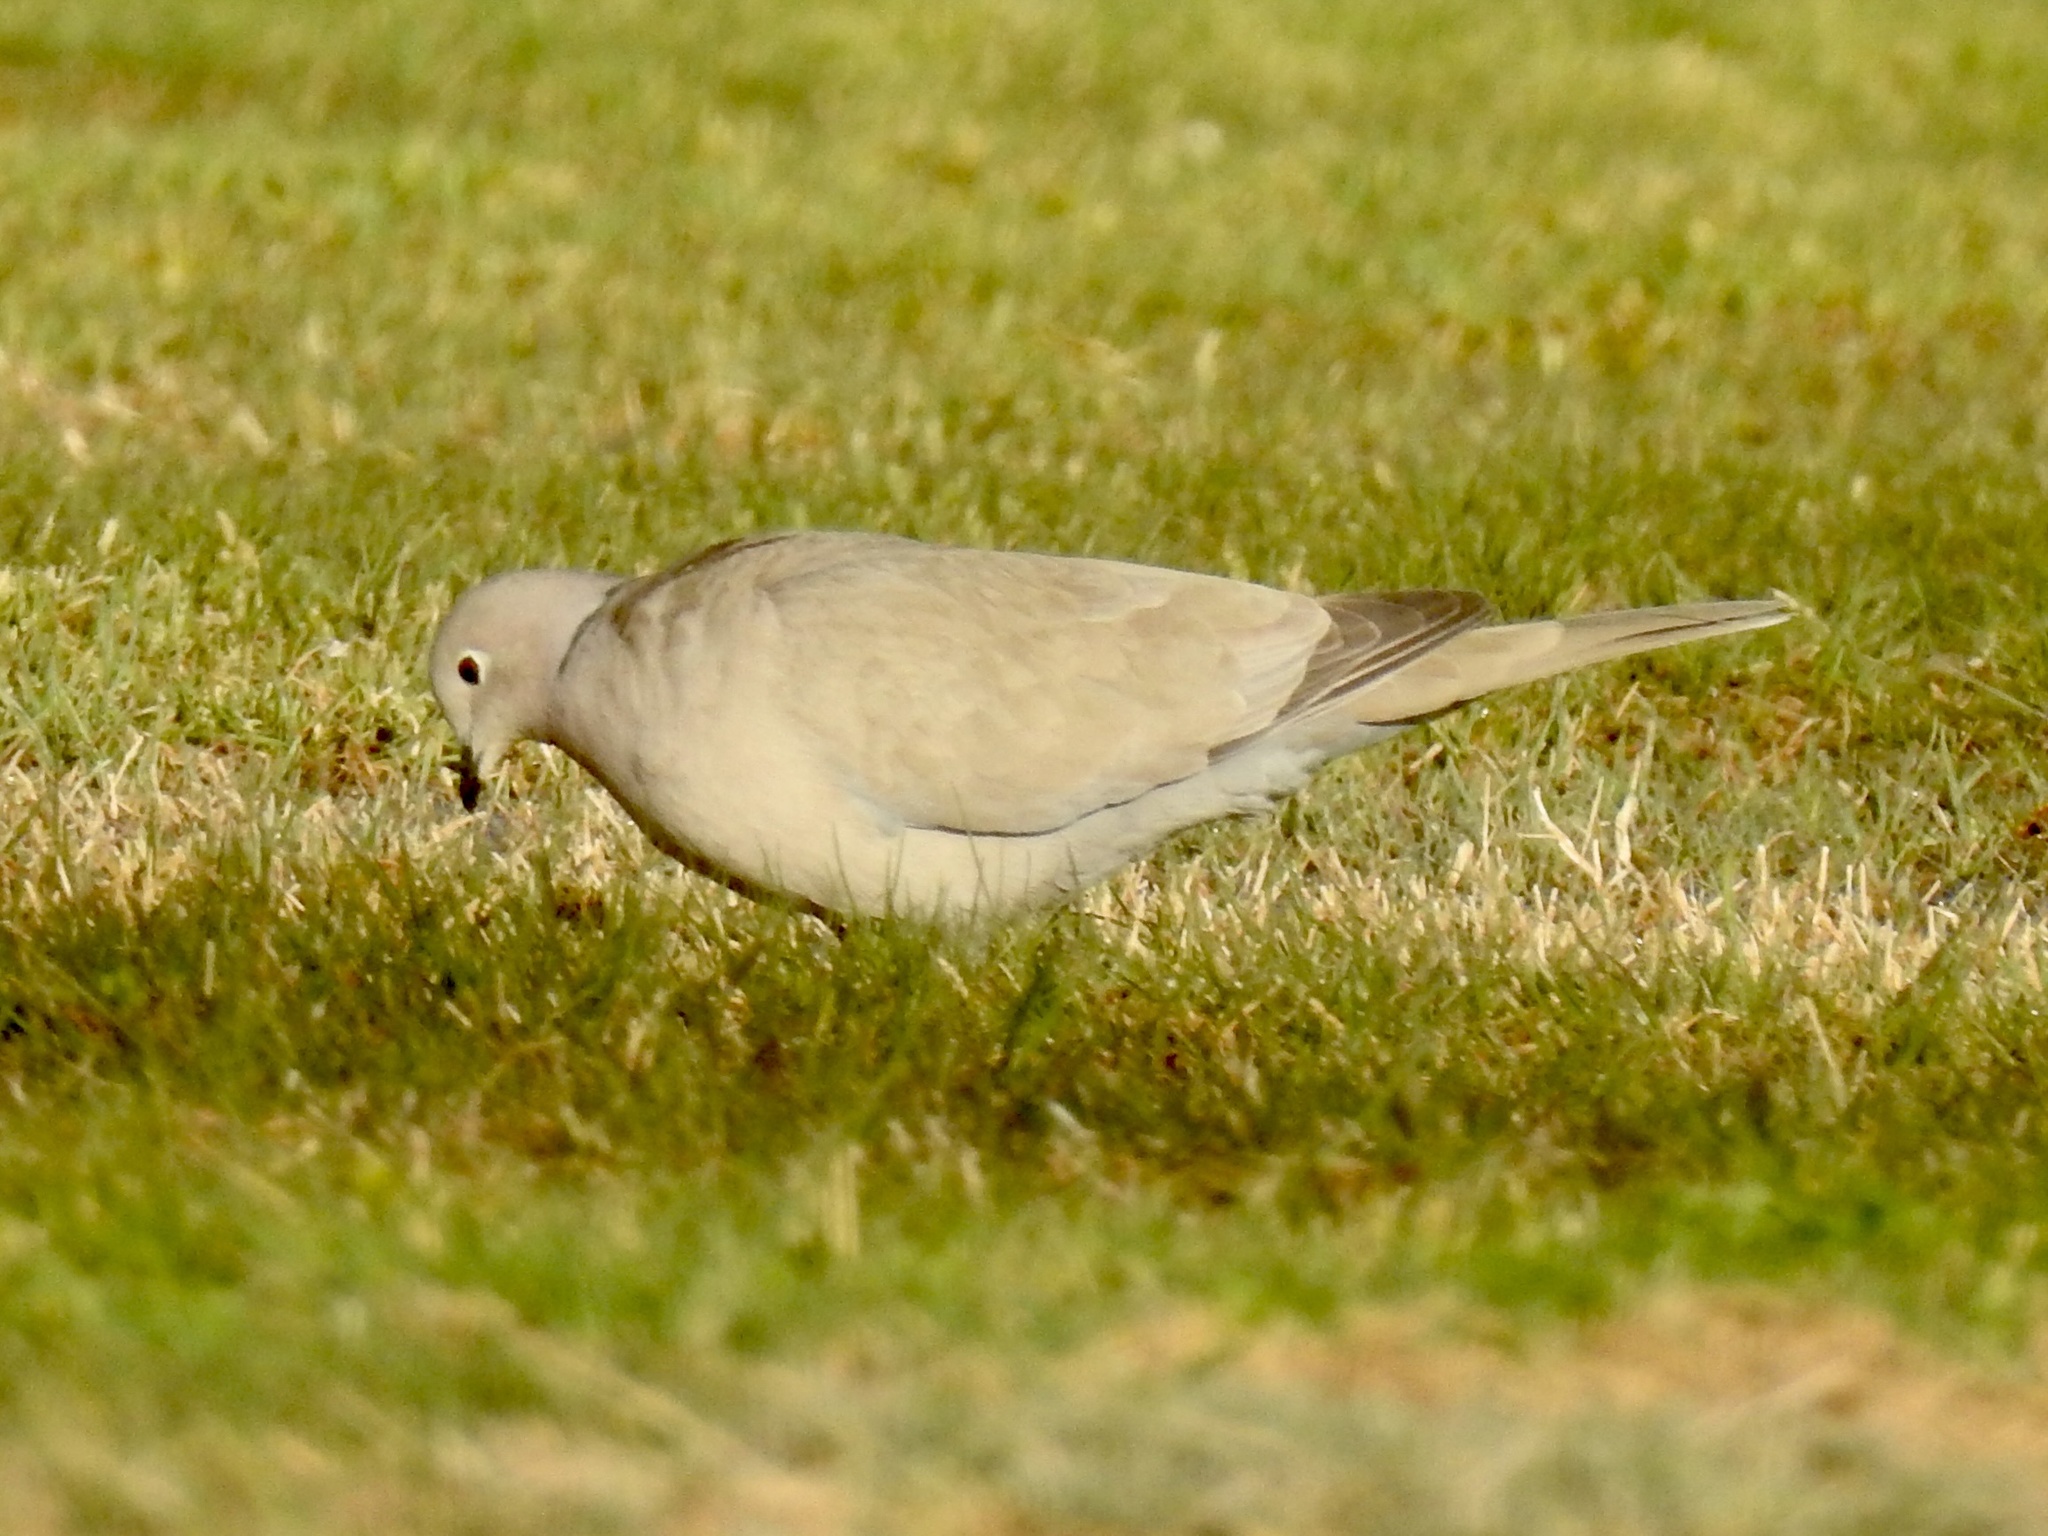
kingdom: Animalia
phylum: Chordata
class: Aves
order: Columbiformes
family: Columbidae
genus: Streptopelia
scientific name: Streptopelia decaocto
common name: Eurasian collared dove
